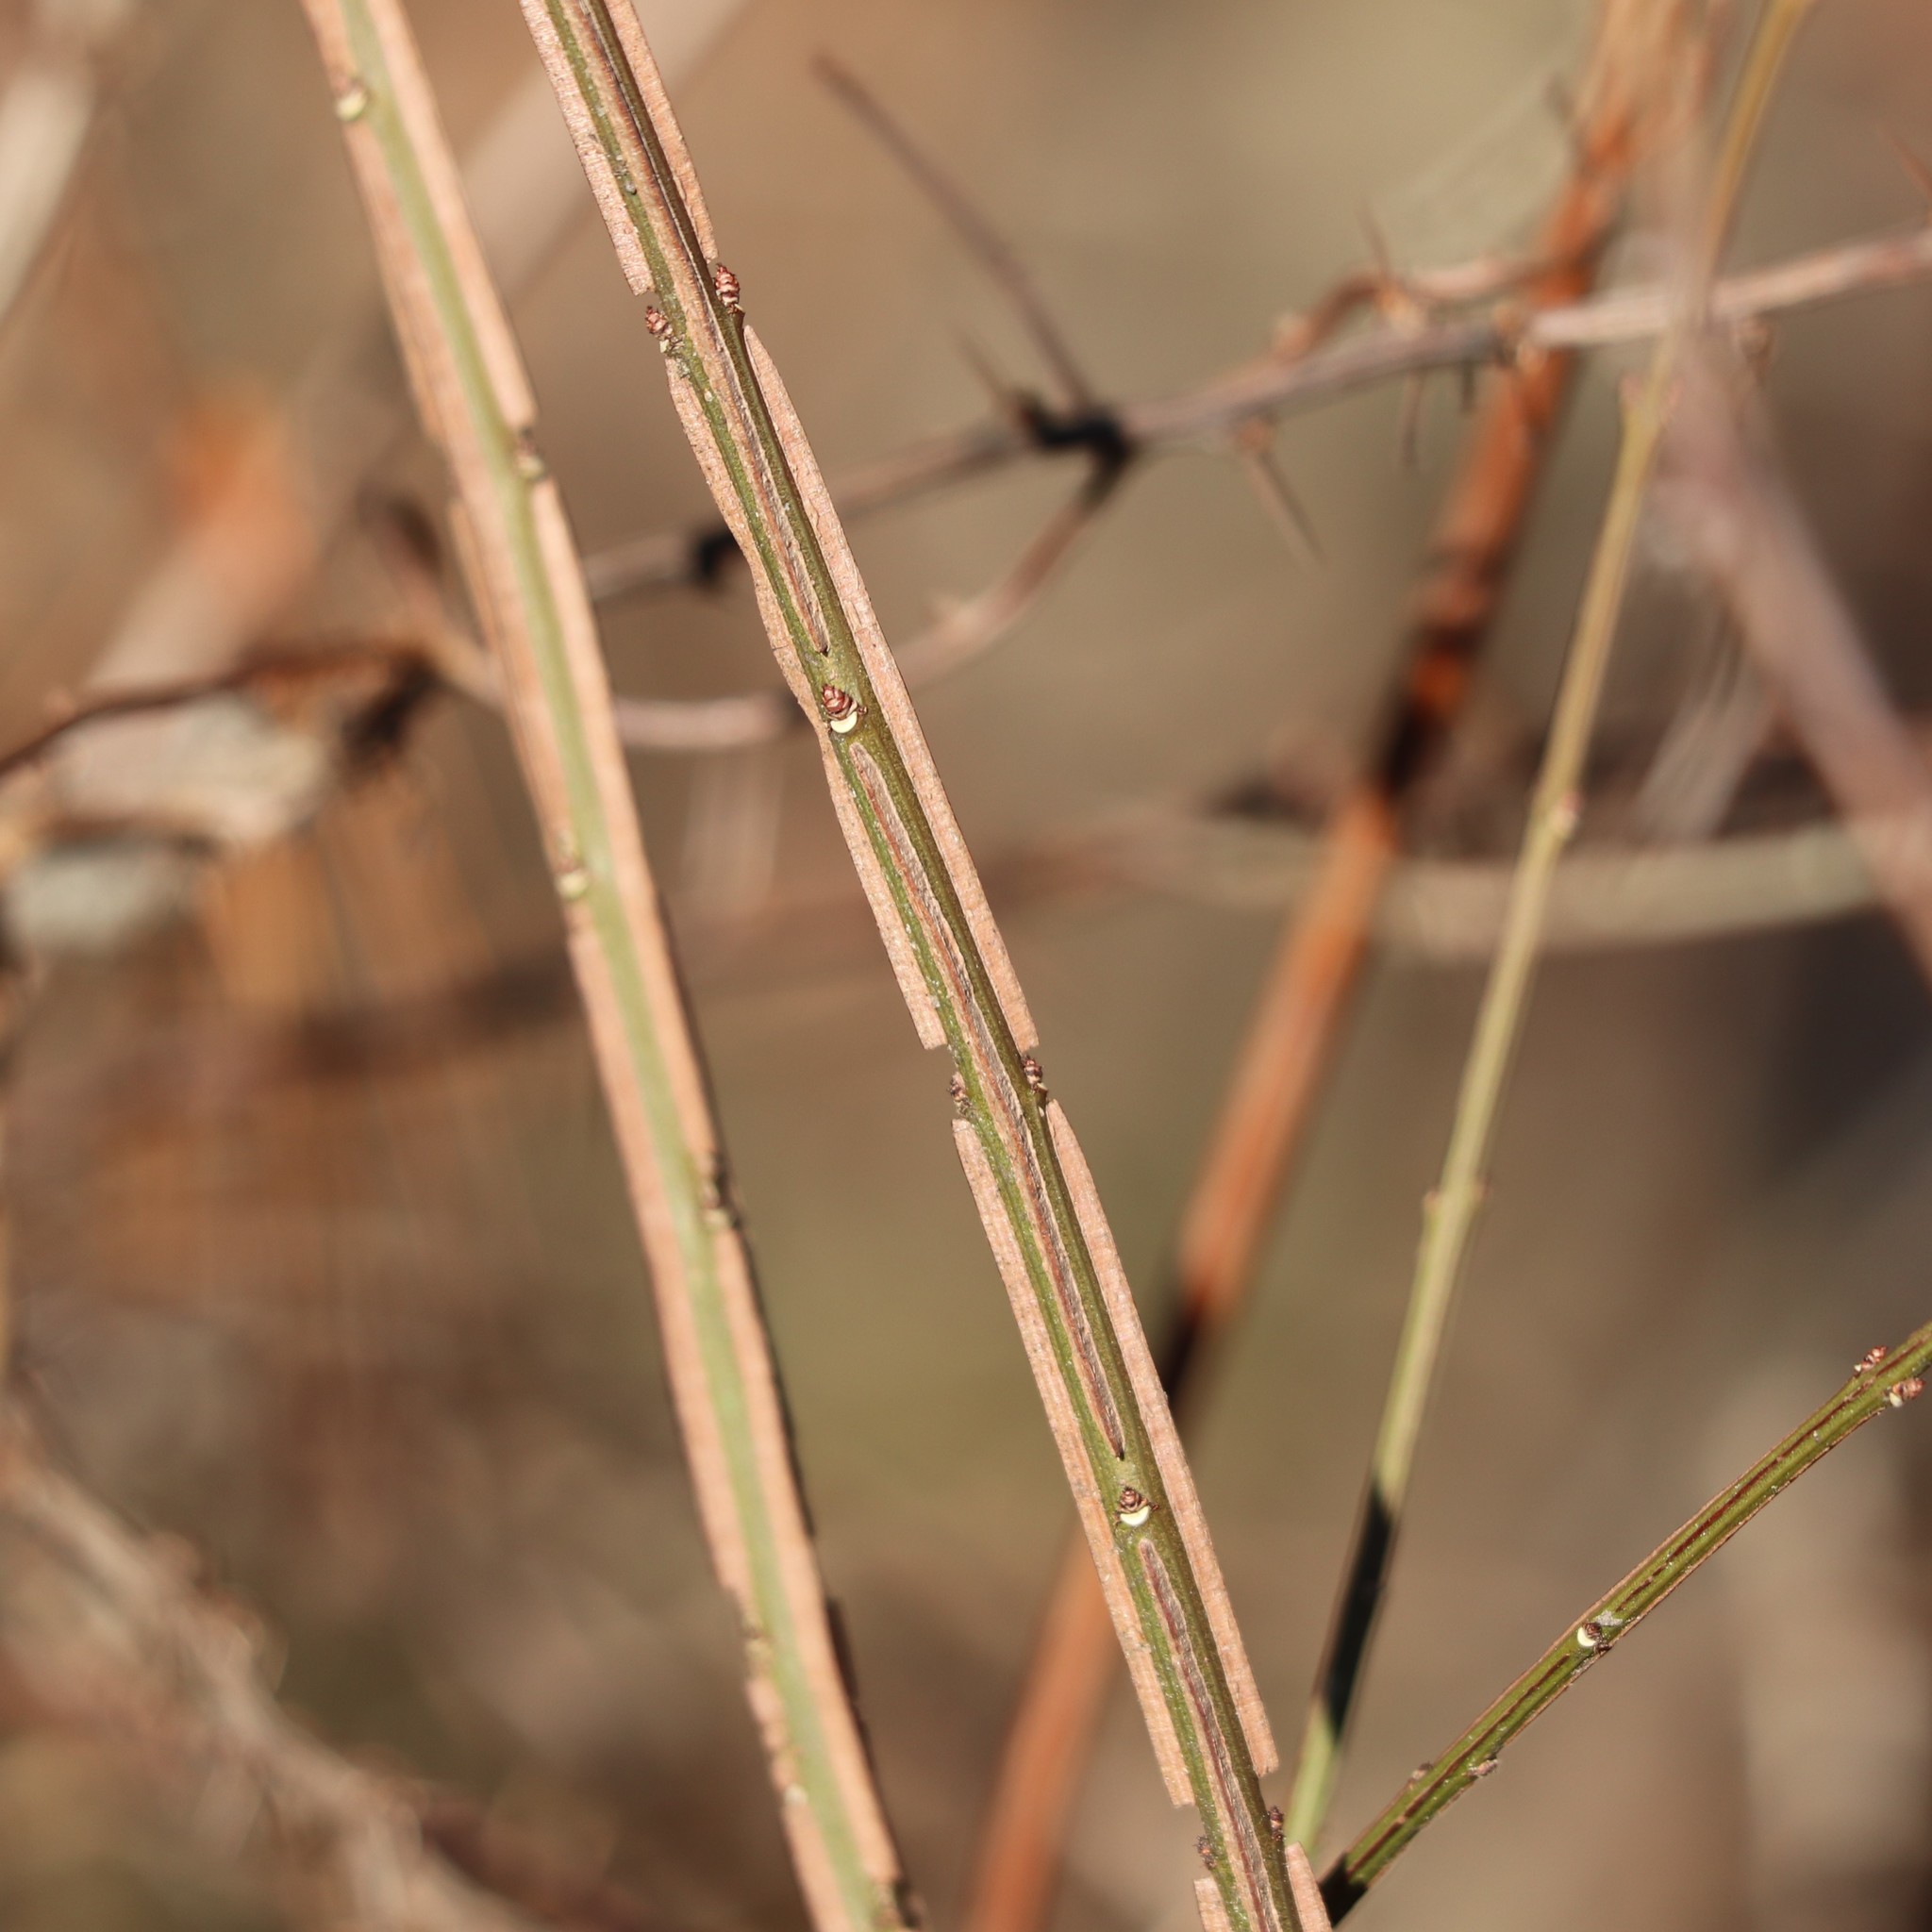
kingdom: Plantae
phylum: Tracheophyta
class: Magnoliopsida
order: Celastrales
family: Celastraceae
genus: Euonymus
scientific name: Euonymus alatus
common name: Winged euonymus
